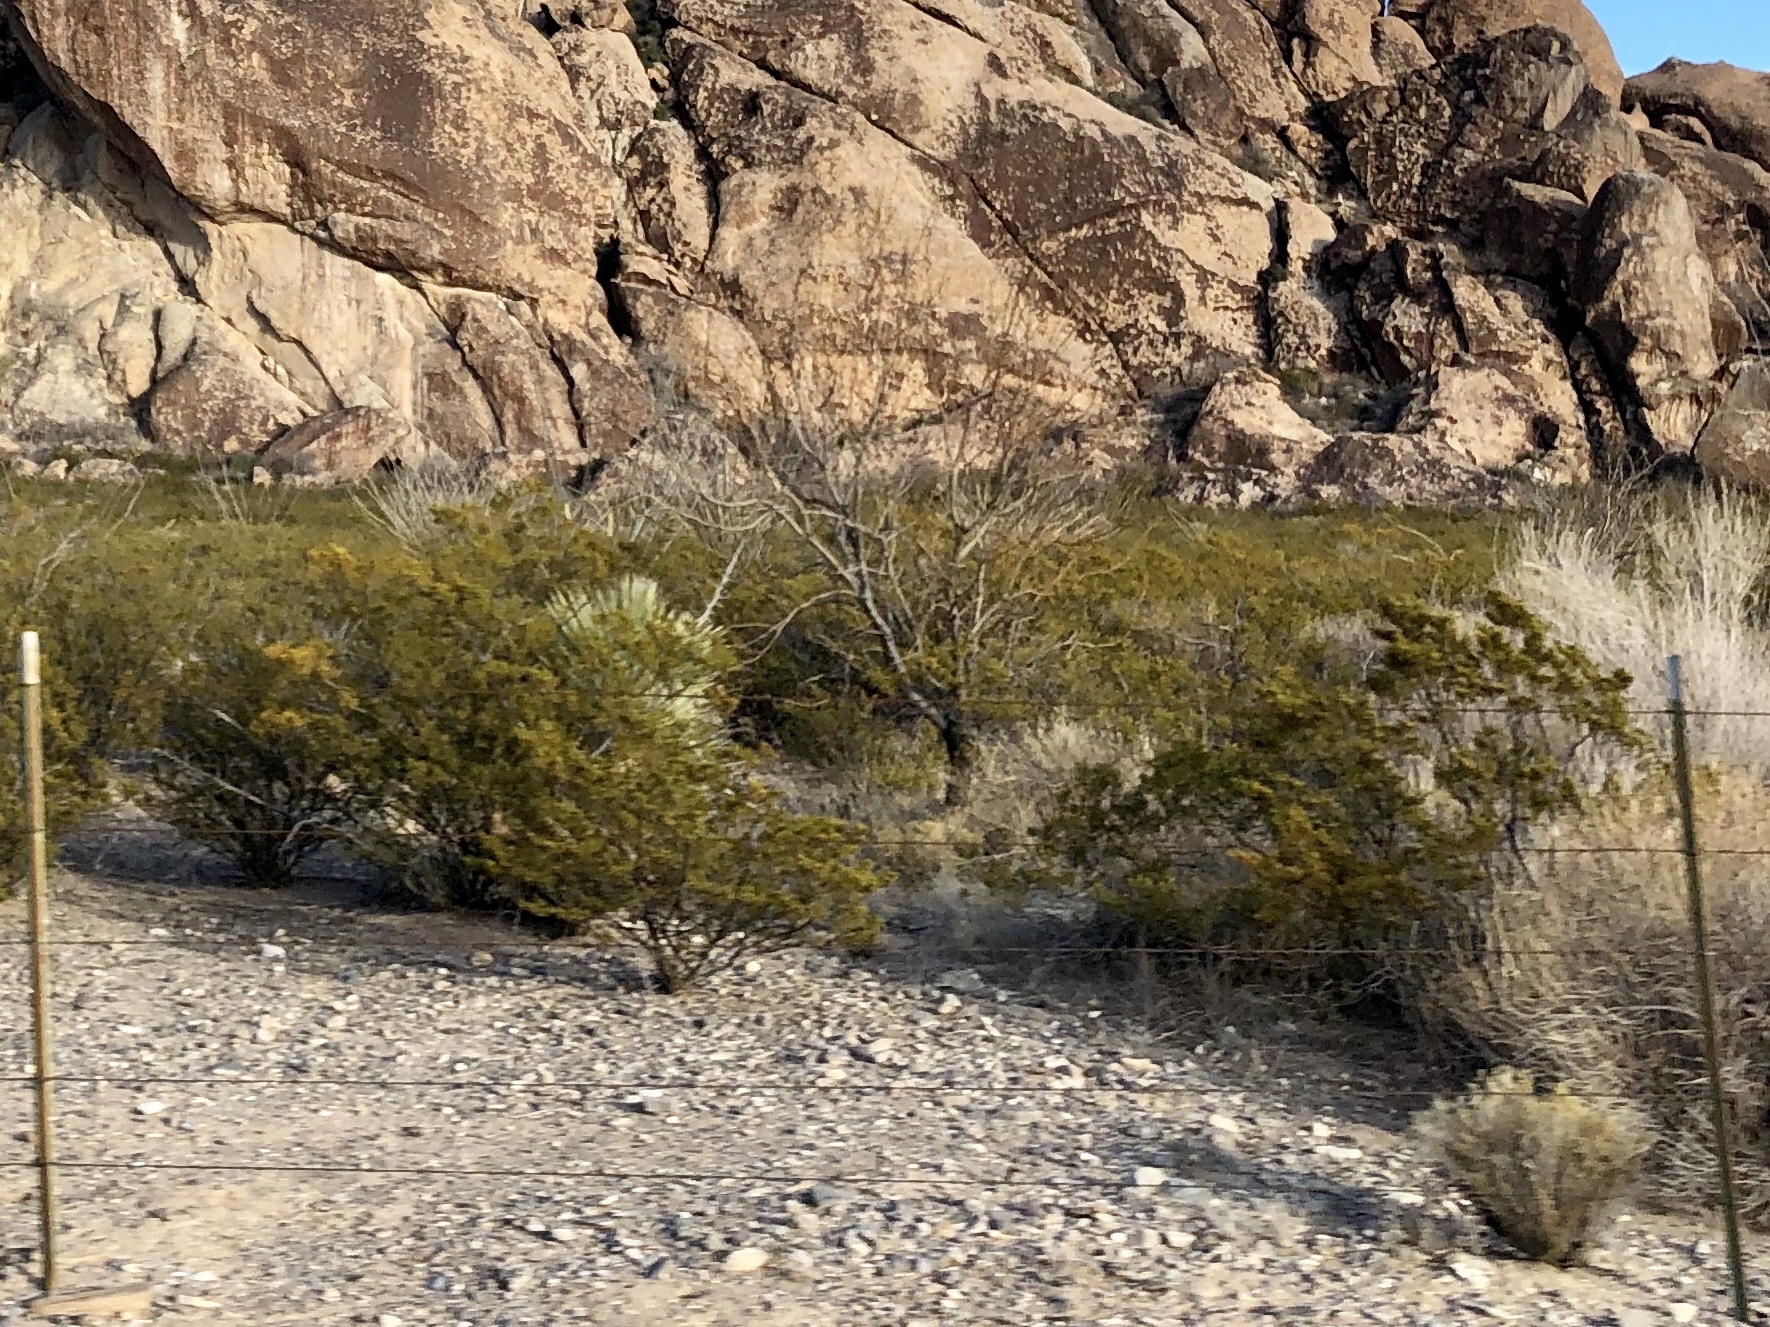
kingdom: Plantae
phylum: Tracheophyta
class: Magnoliopsida
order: Zygophyllales
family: Zygophyllaceae
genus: Larrea
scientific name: Larrea tridentata
